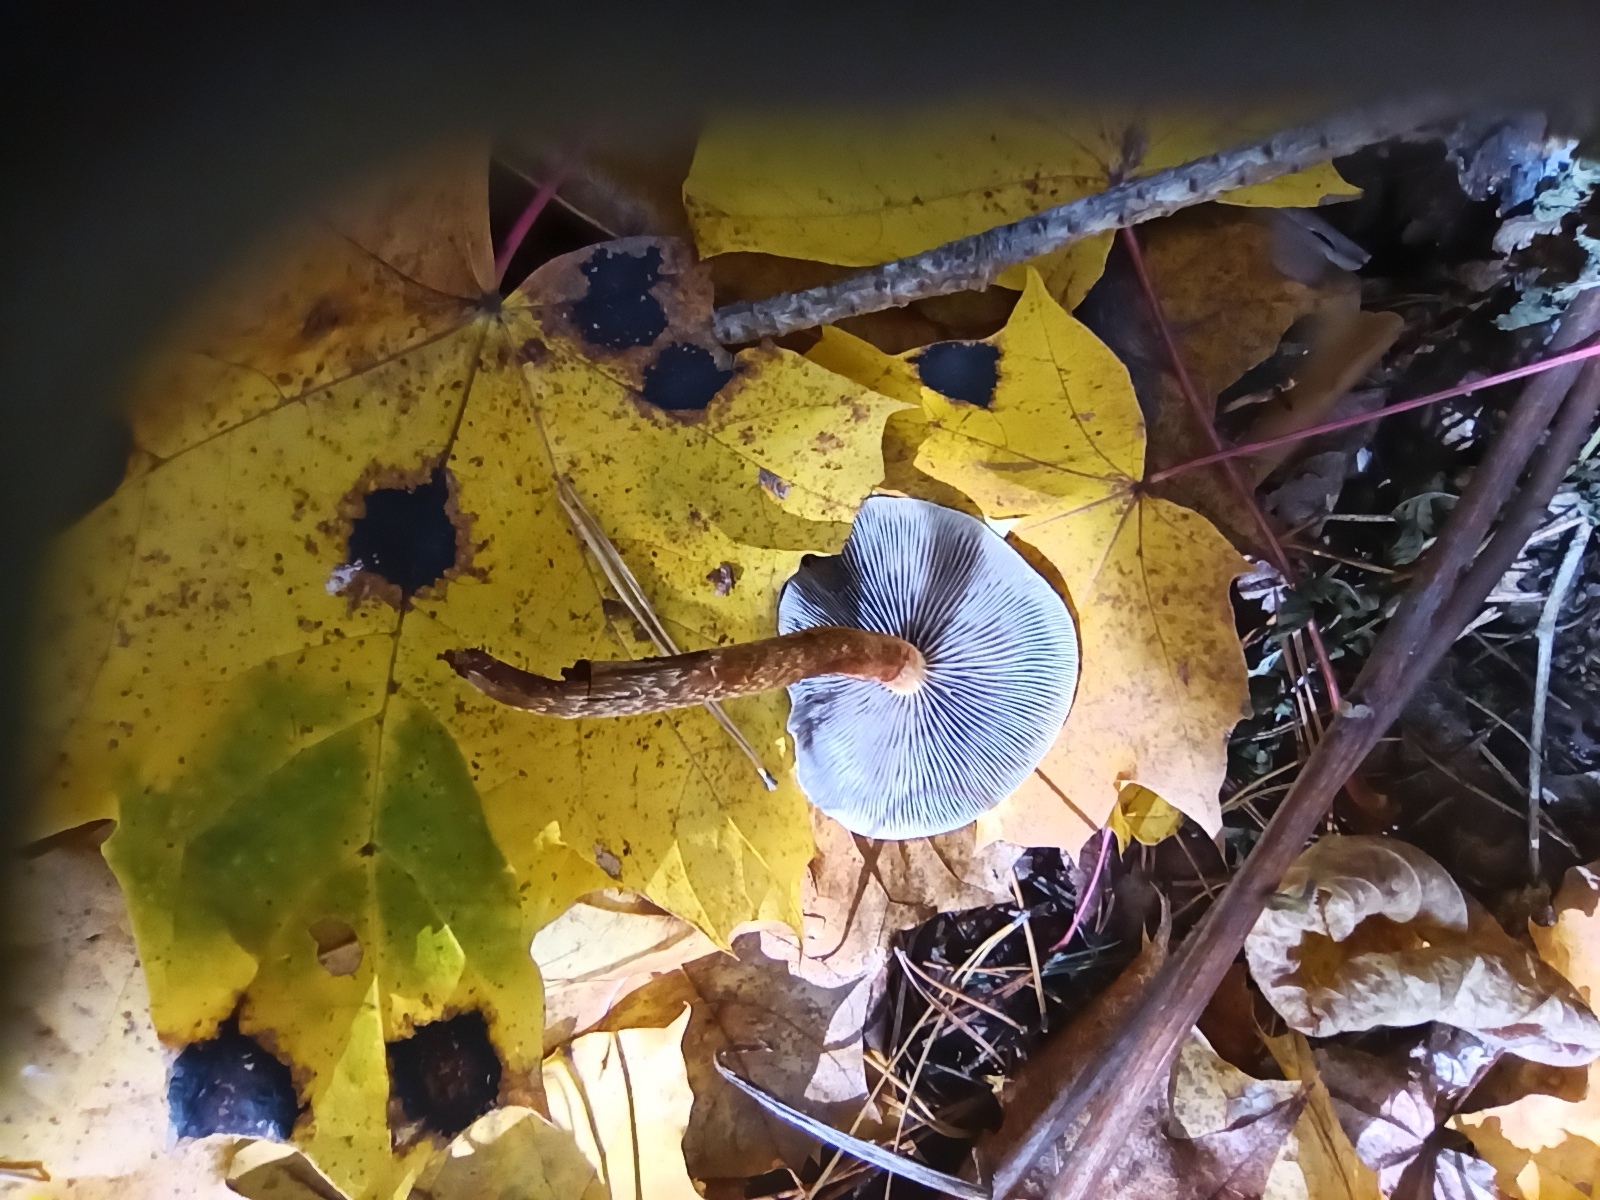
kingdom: Fungi
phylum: Basidiomycota
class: Agaricomycetes
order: Agaricales
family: Strophariaceae
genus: Hypholoma
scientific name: Hypholoma capnoides
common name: Conifer tuft
